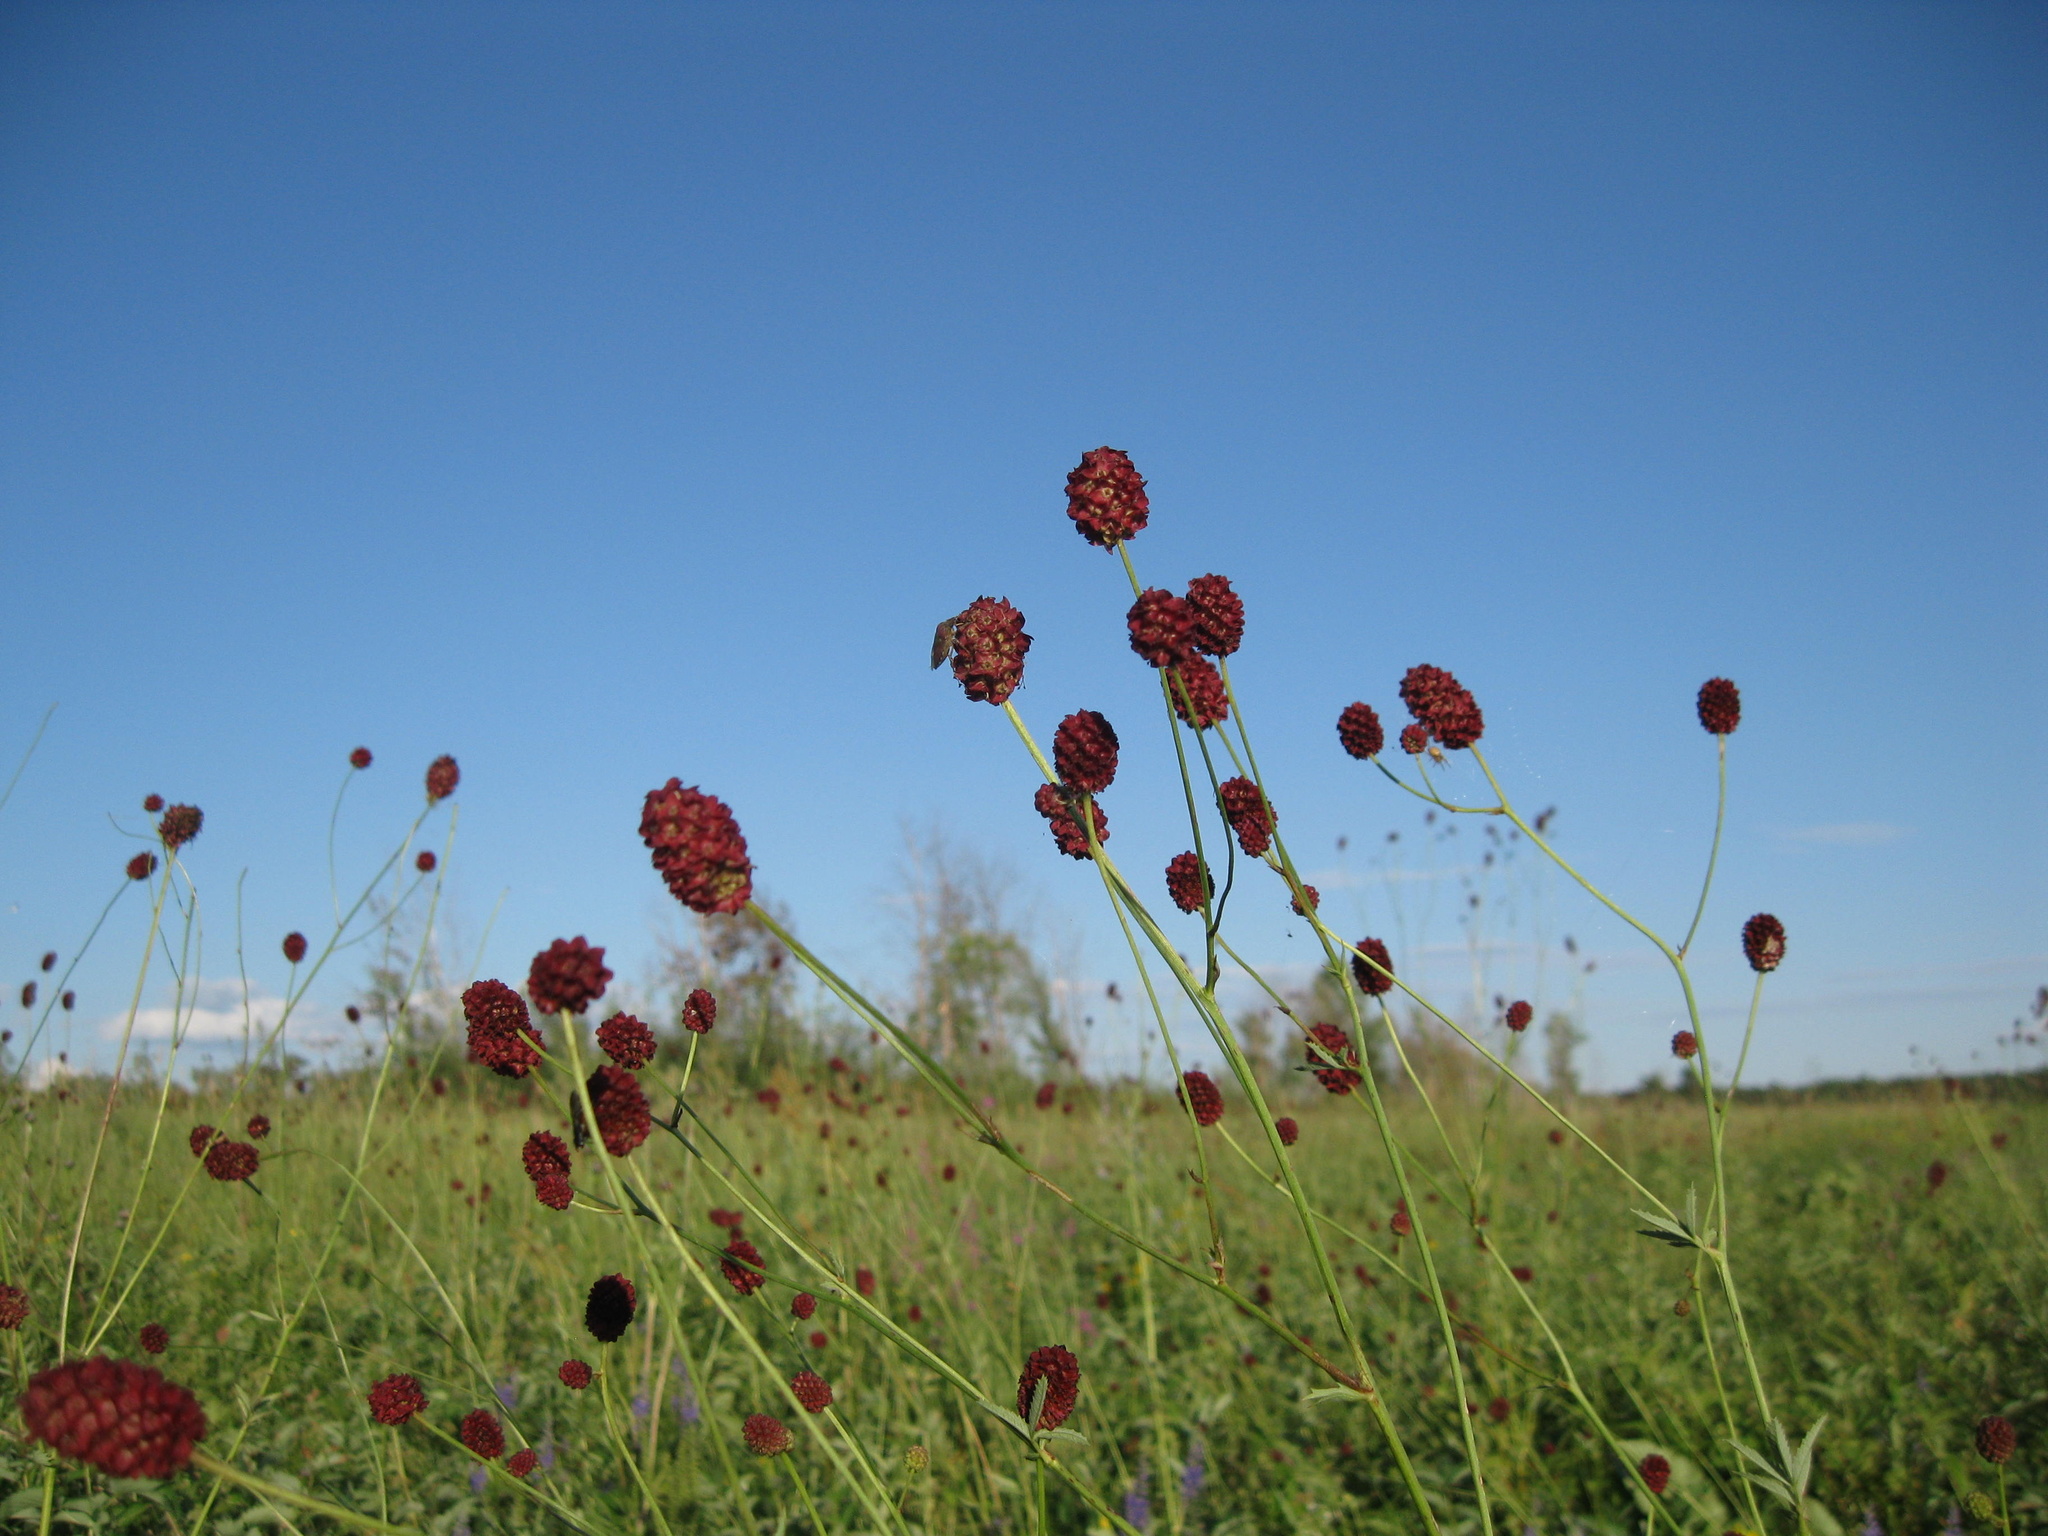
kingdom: Plantae
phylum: Tracheophyta
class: Magnoliopsida
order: Rosales
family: Rosaceae
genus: Sanguisorba
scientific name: Sanguisorba officinalis
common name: Great burnet
